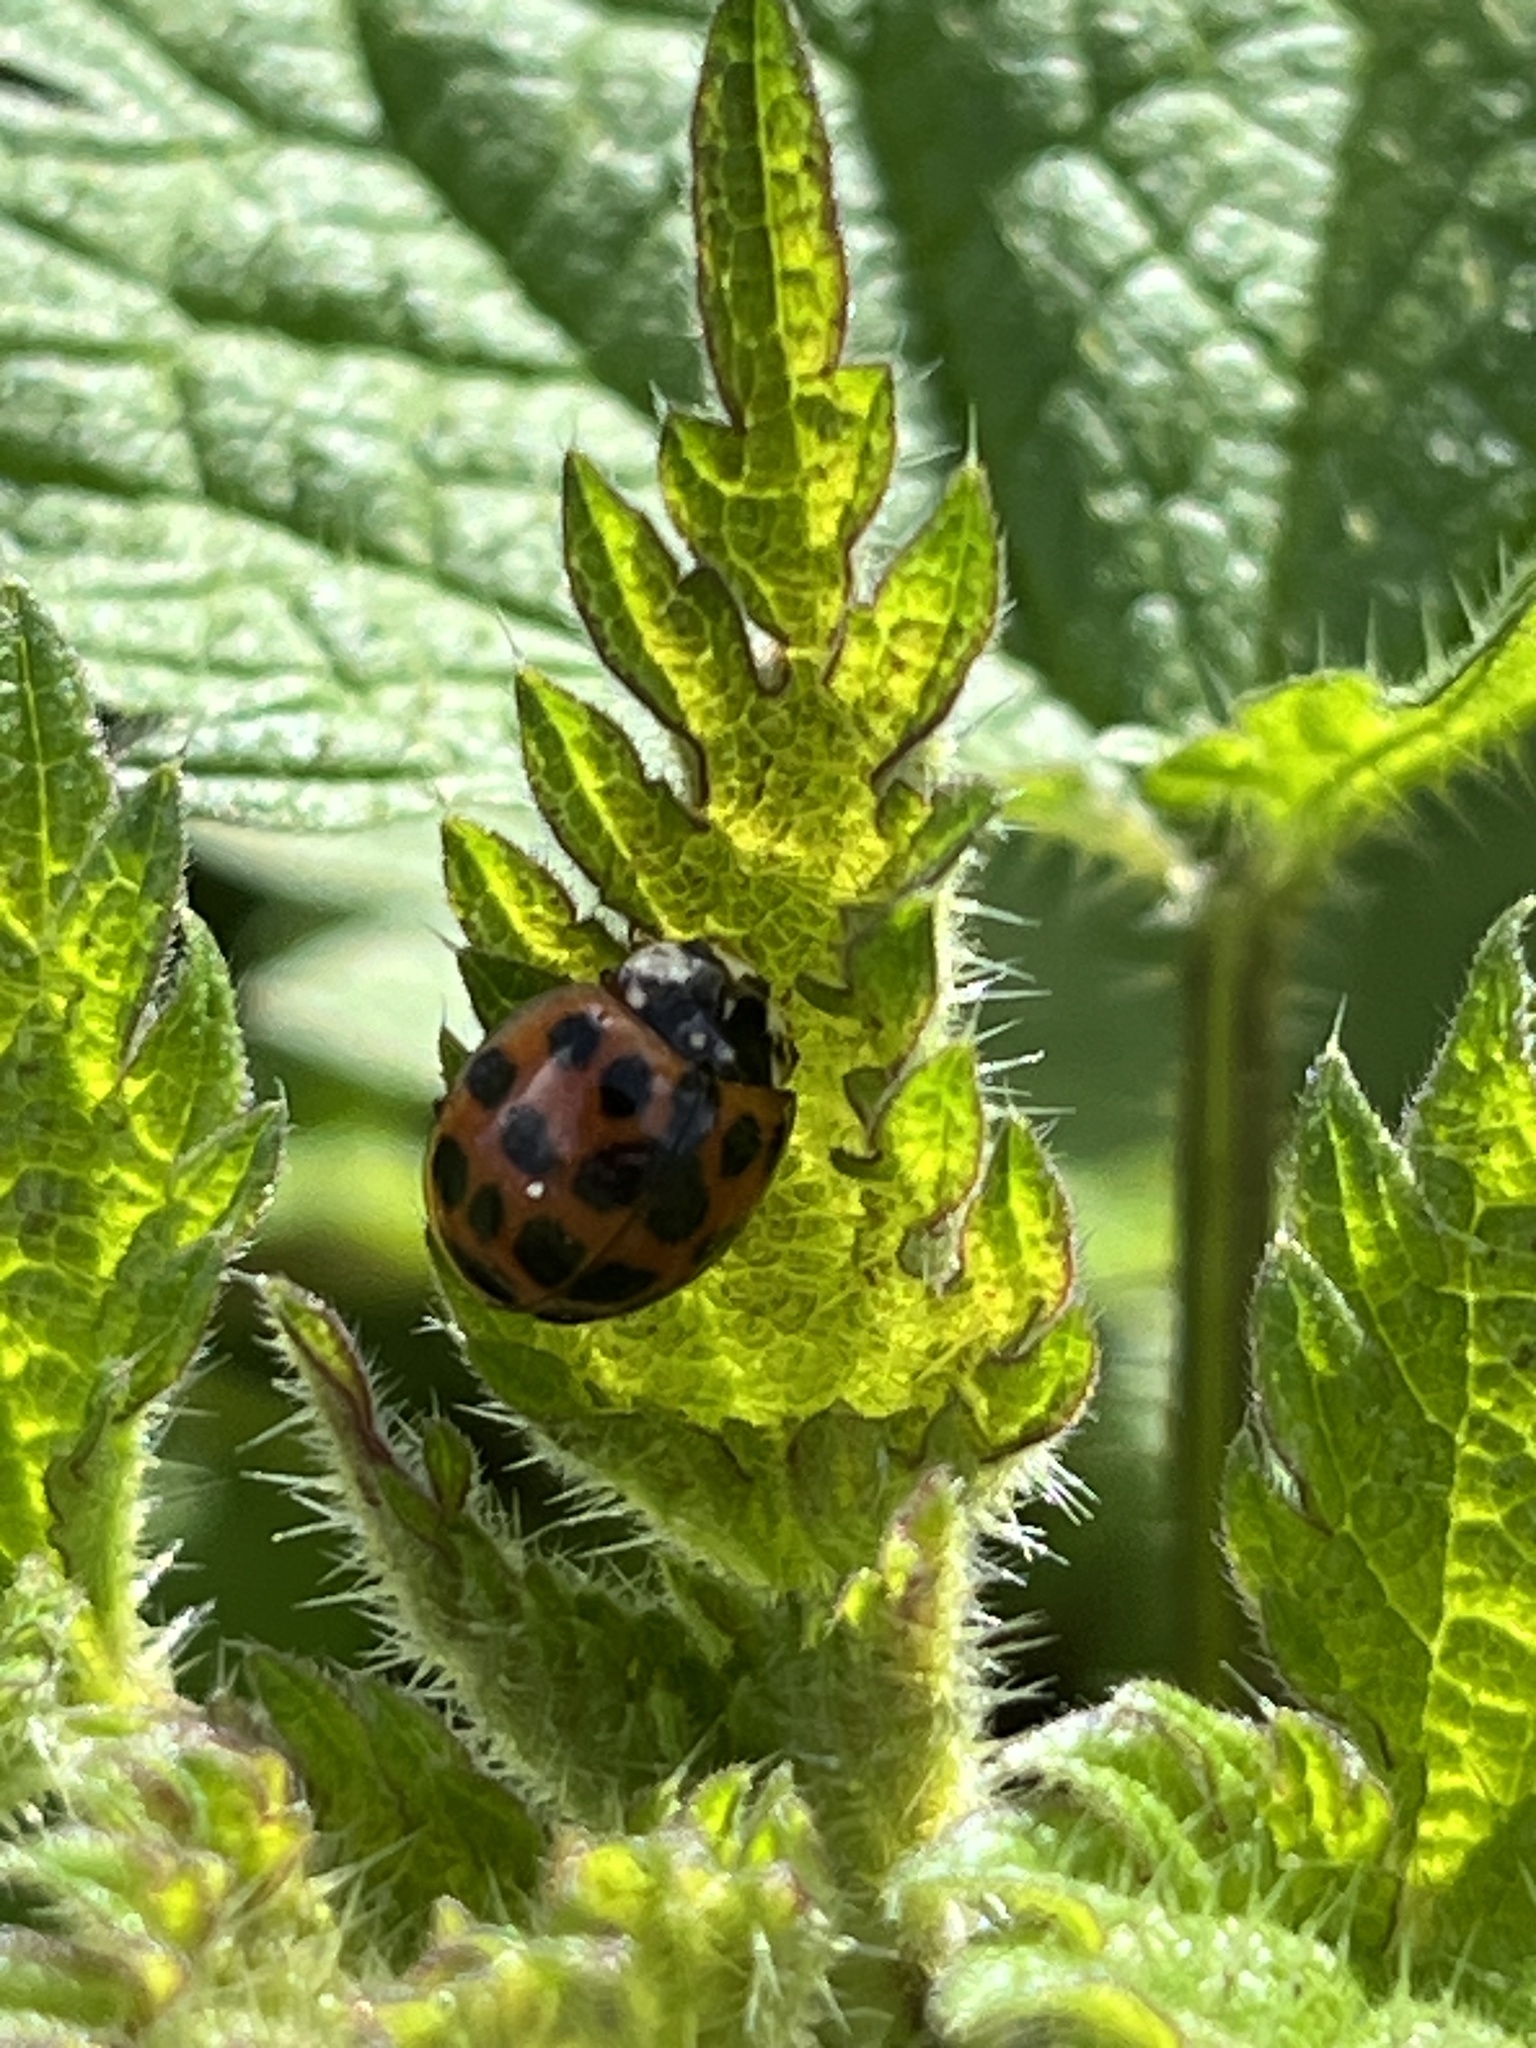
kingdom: Animalia
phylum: Arthropoda
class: Insecta
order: Coleoptera
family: Coccinellidae
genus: Harmonia
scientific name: Harmonia axyridis
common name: Harlequin ladybird
